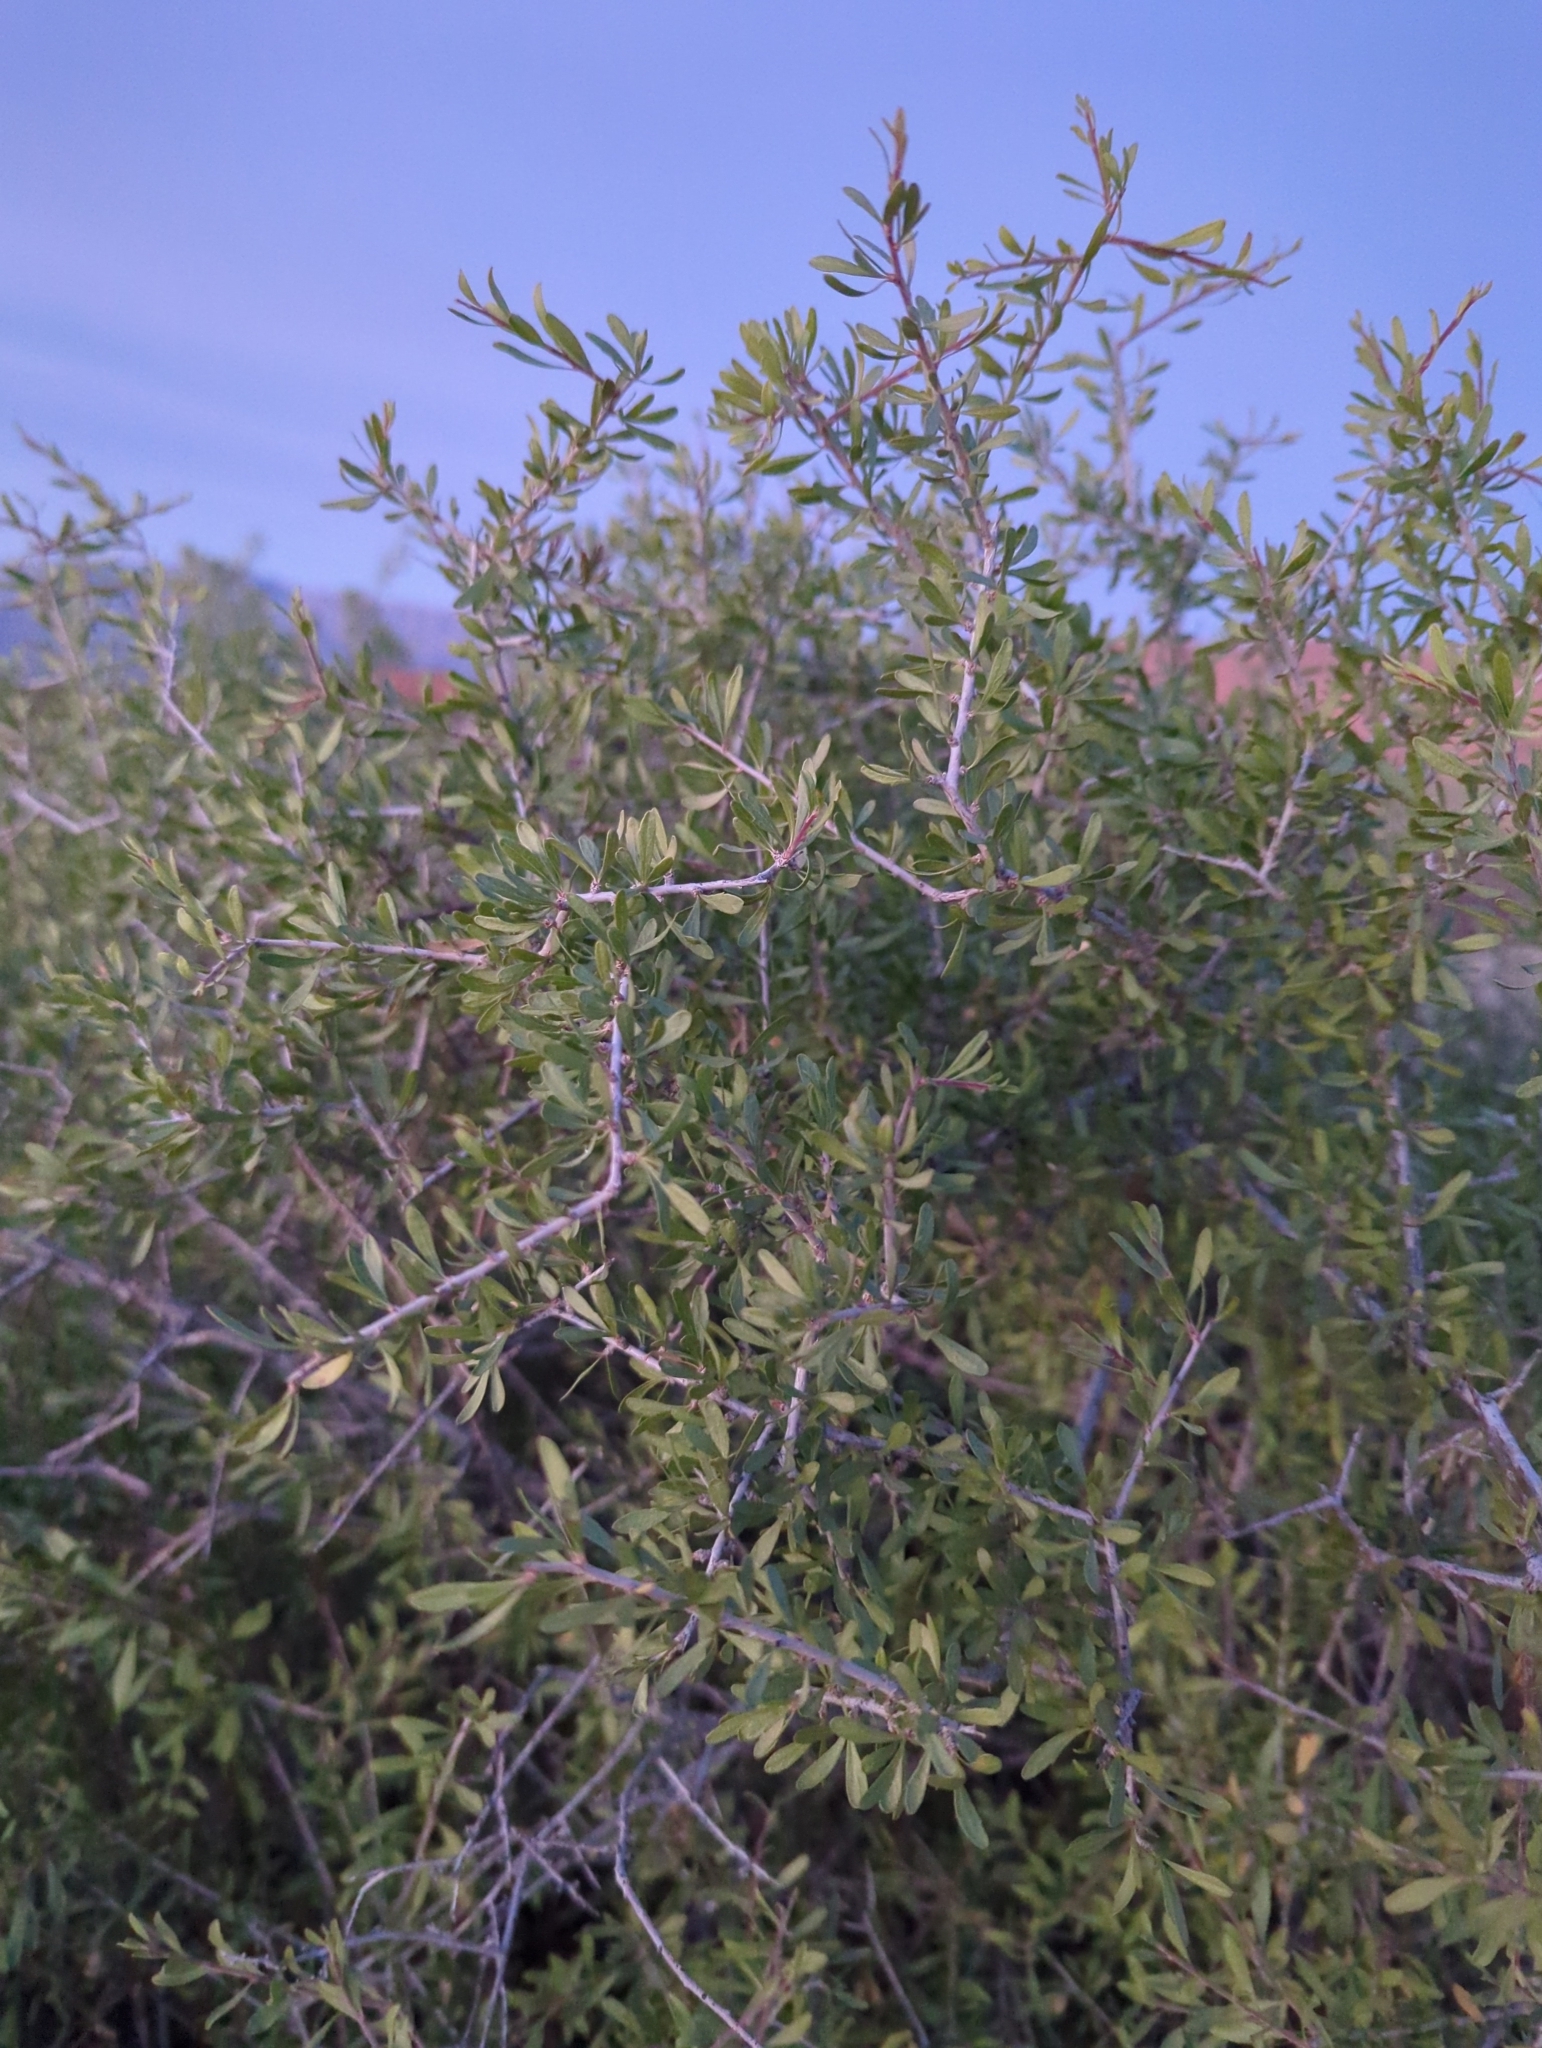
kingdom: Plantae
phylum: Tracheophyta
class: Magnoliopsida
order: Rosales
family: Rosaceae
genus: Prunus
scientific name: Prunus fasciculata
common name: Desert almond
